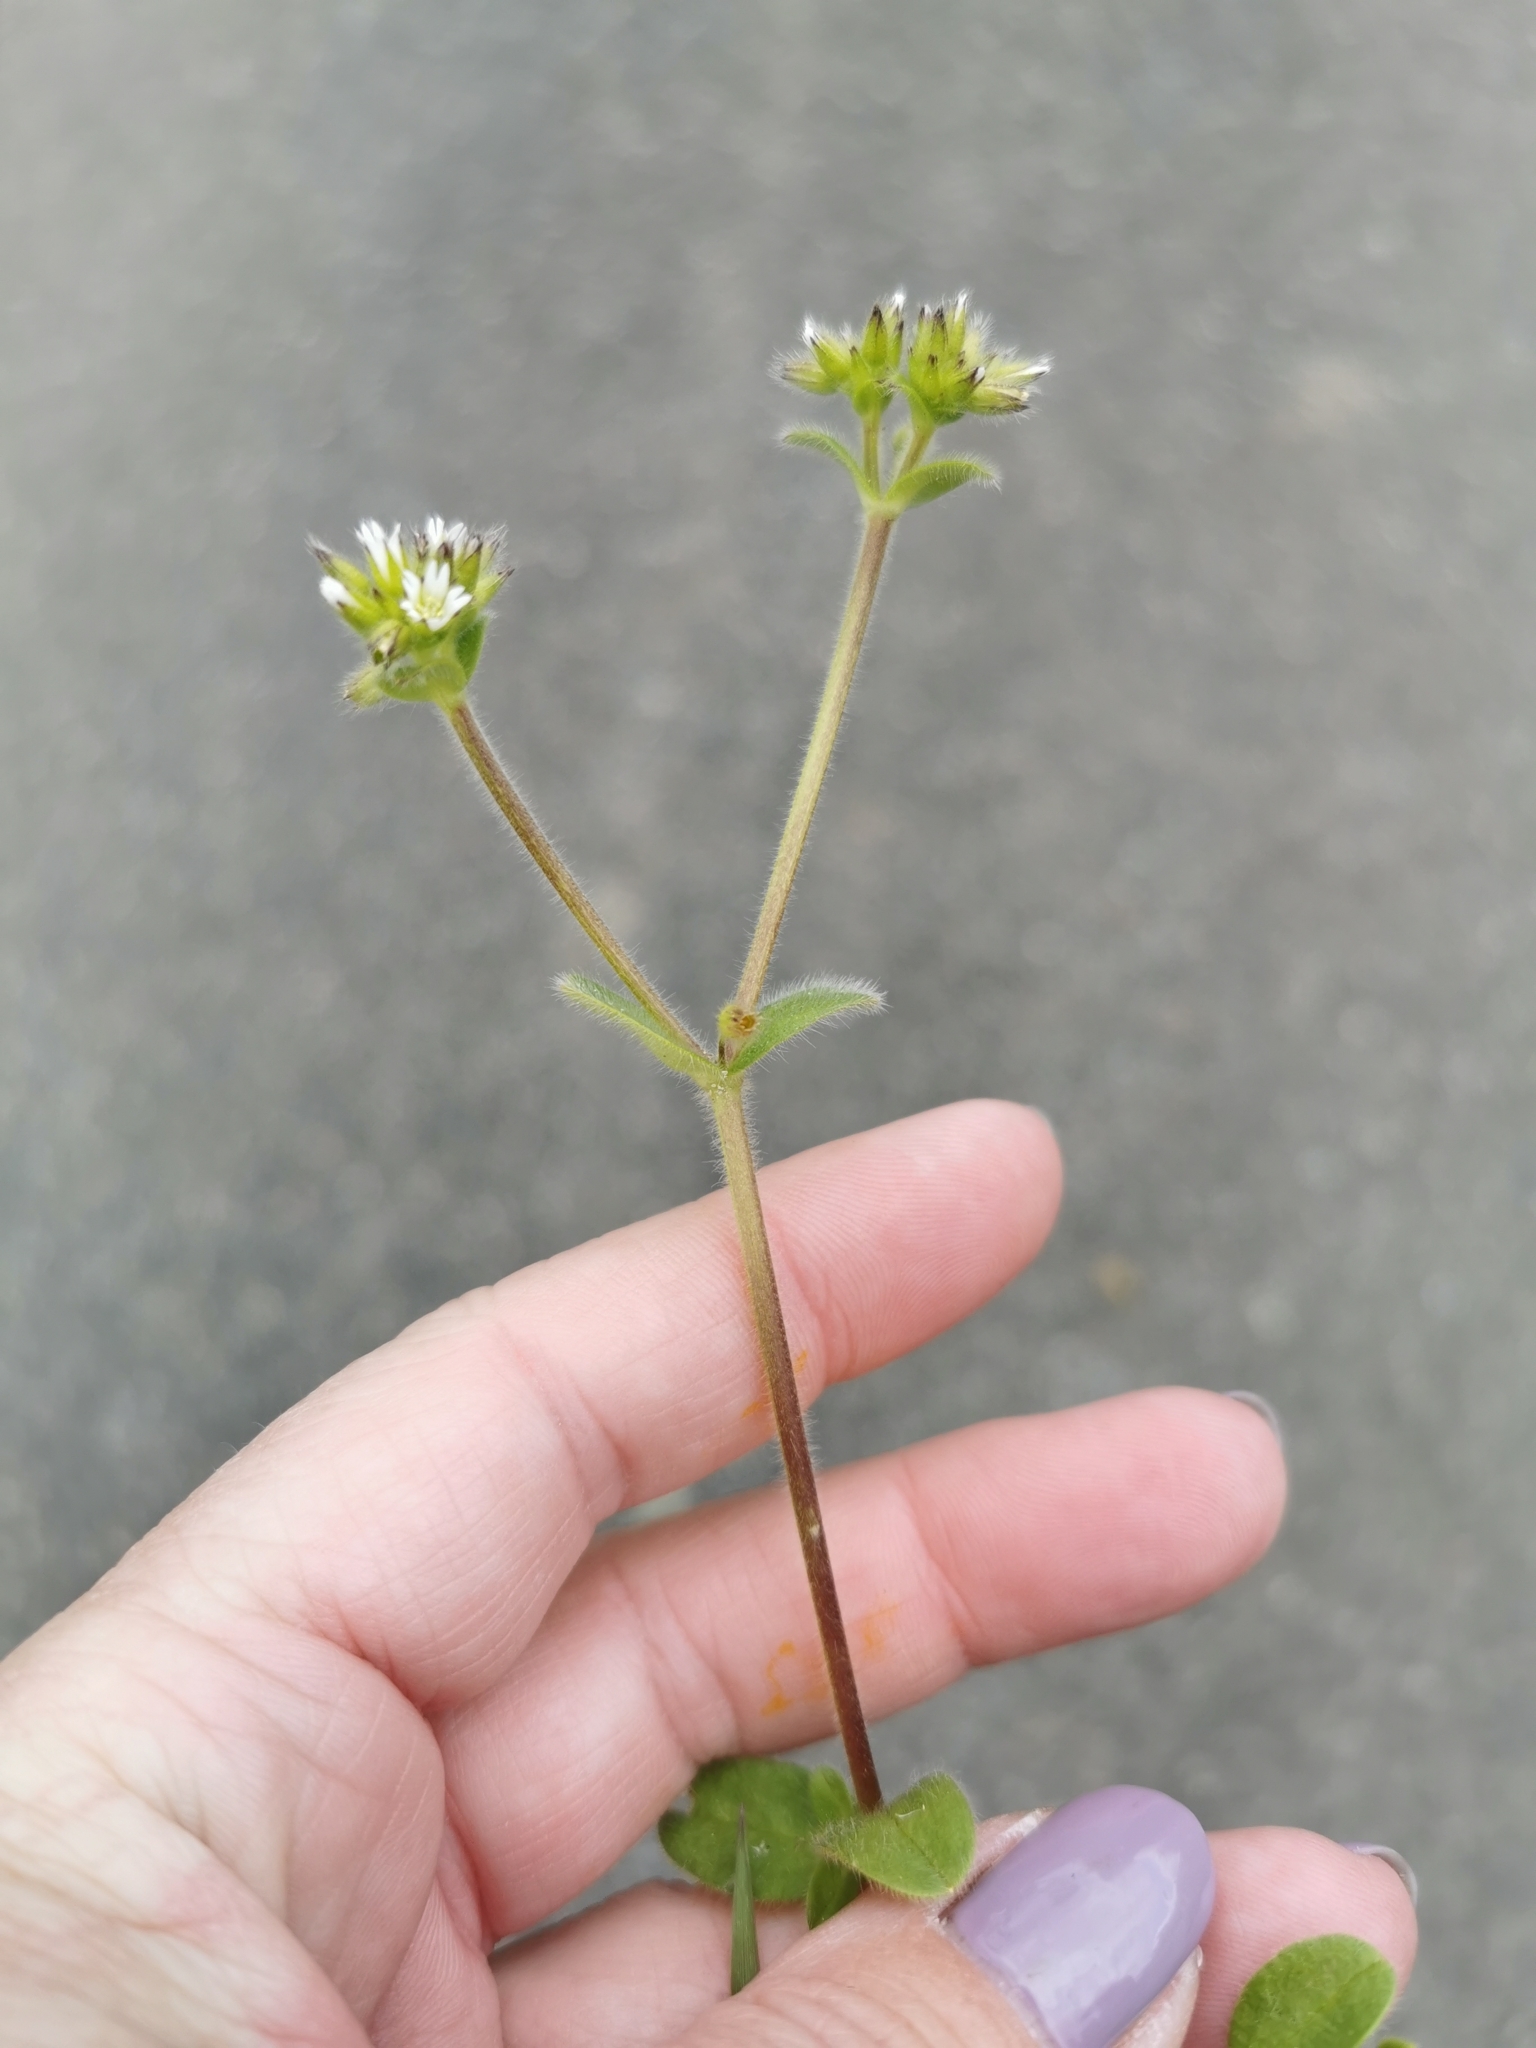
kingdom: Plantae
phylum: Tracheophyta
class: Magnoliopsida
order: Caryophyllales
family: Caryophyllaceae
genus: Cerastium
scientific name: Cerastium glomeratum
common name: Sticky chickweed
